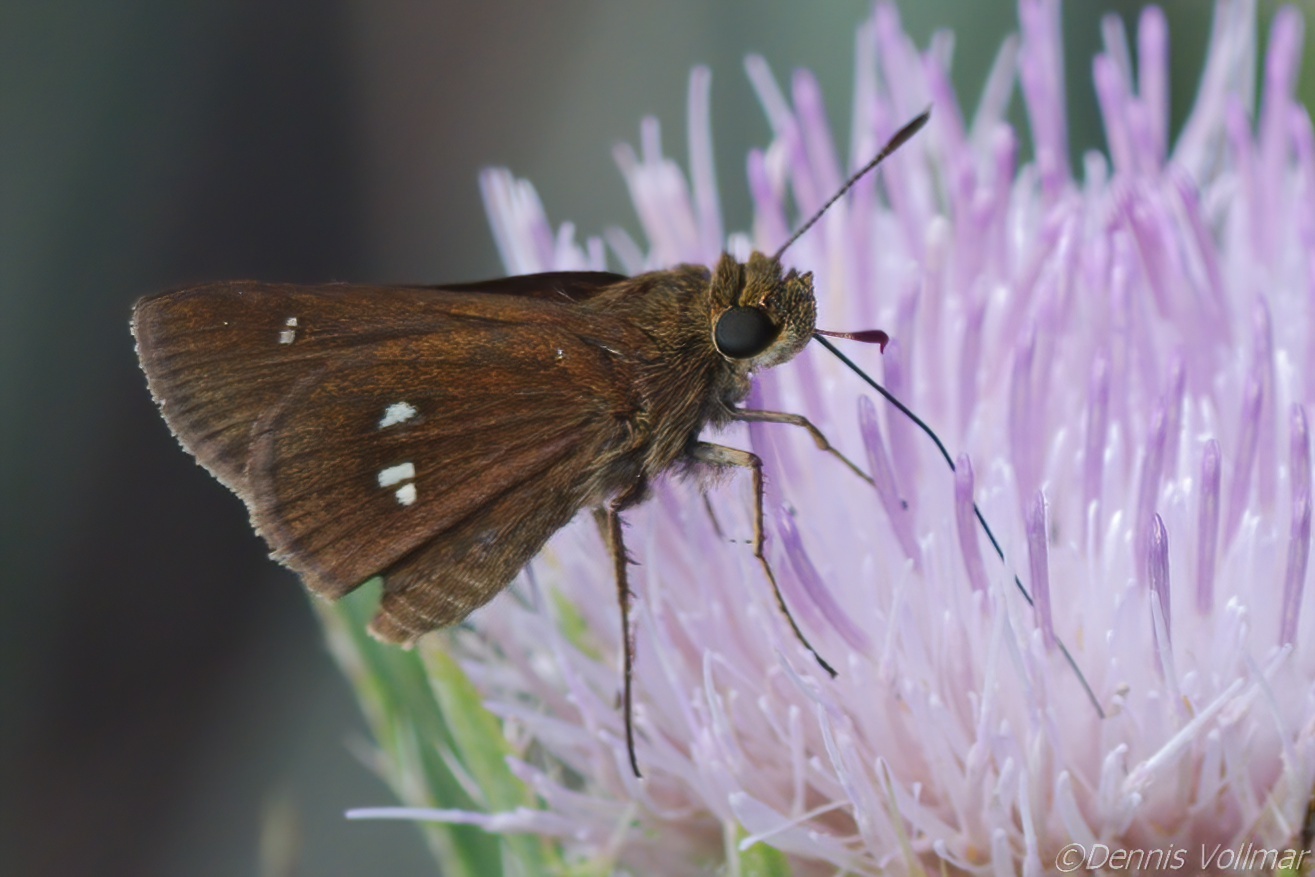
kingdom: Animalia
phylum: Arthropoda
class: Insecta
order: Lepidoptera
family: Hesperiidae
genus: Oligoria
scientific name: Oligoria maculata
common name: Twin-spot skipper
